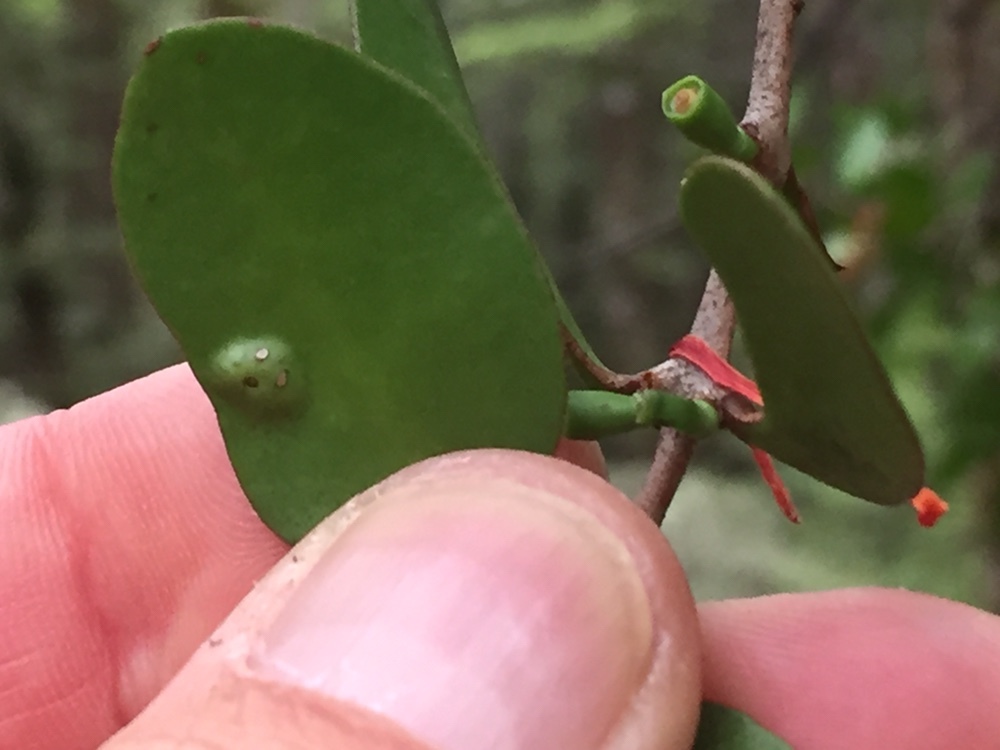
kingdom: Plantae
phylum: Tracheophyta
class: Magnoliopsida
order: Santalales
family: Loranthaceae
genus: Peraxilla
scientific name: Peraxilla tetrapetala
